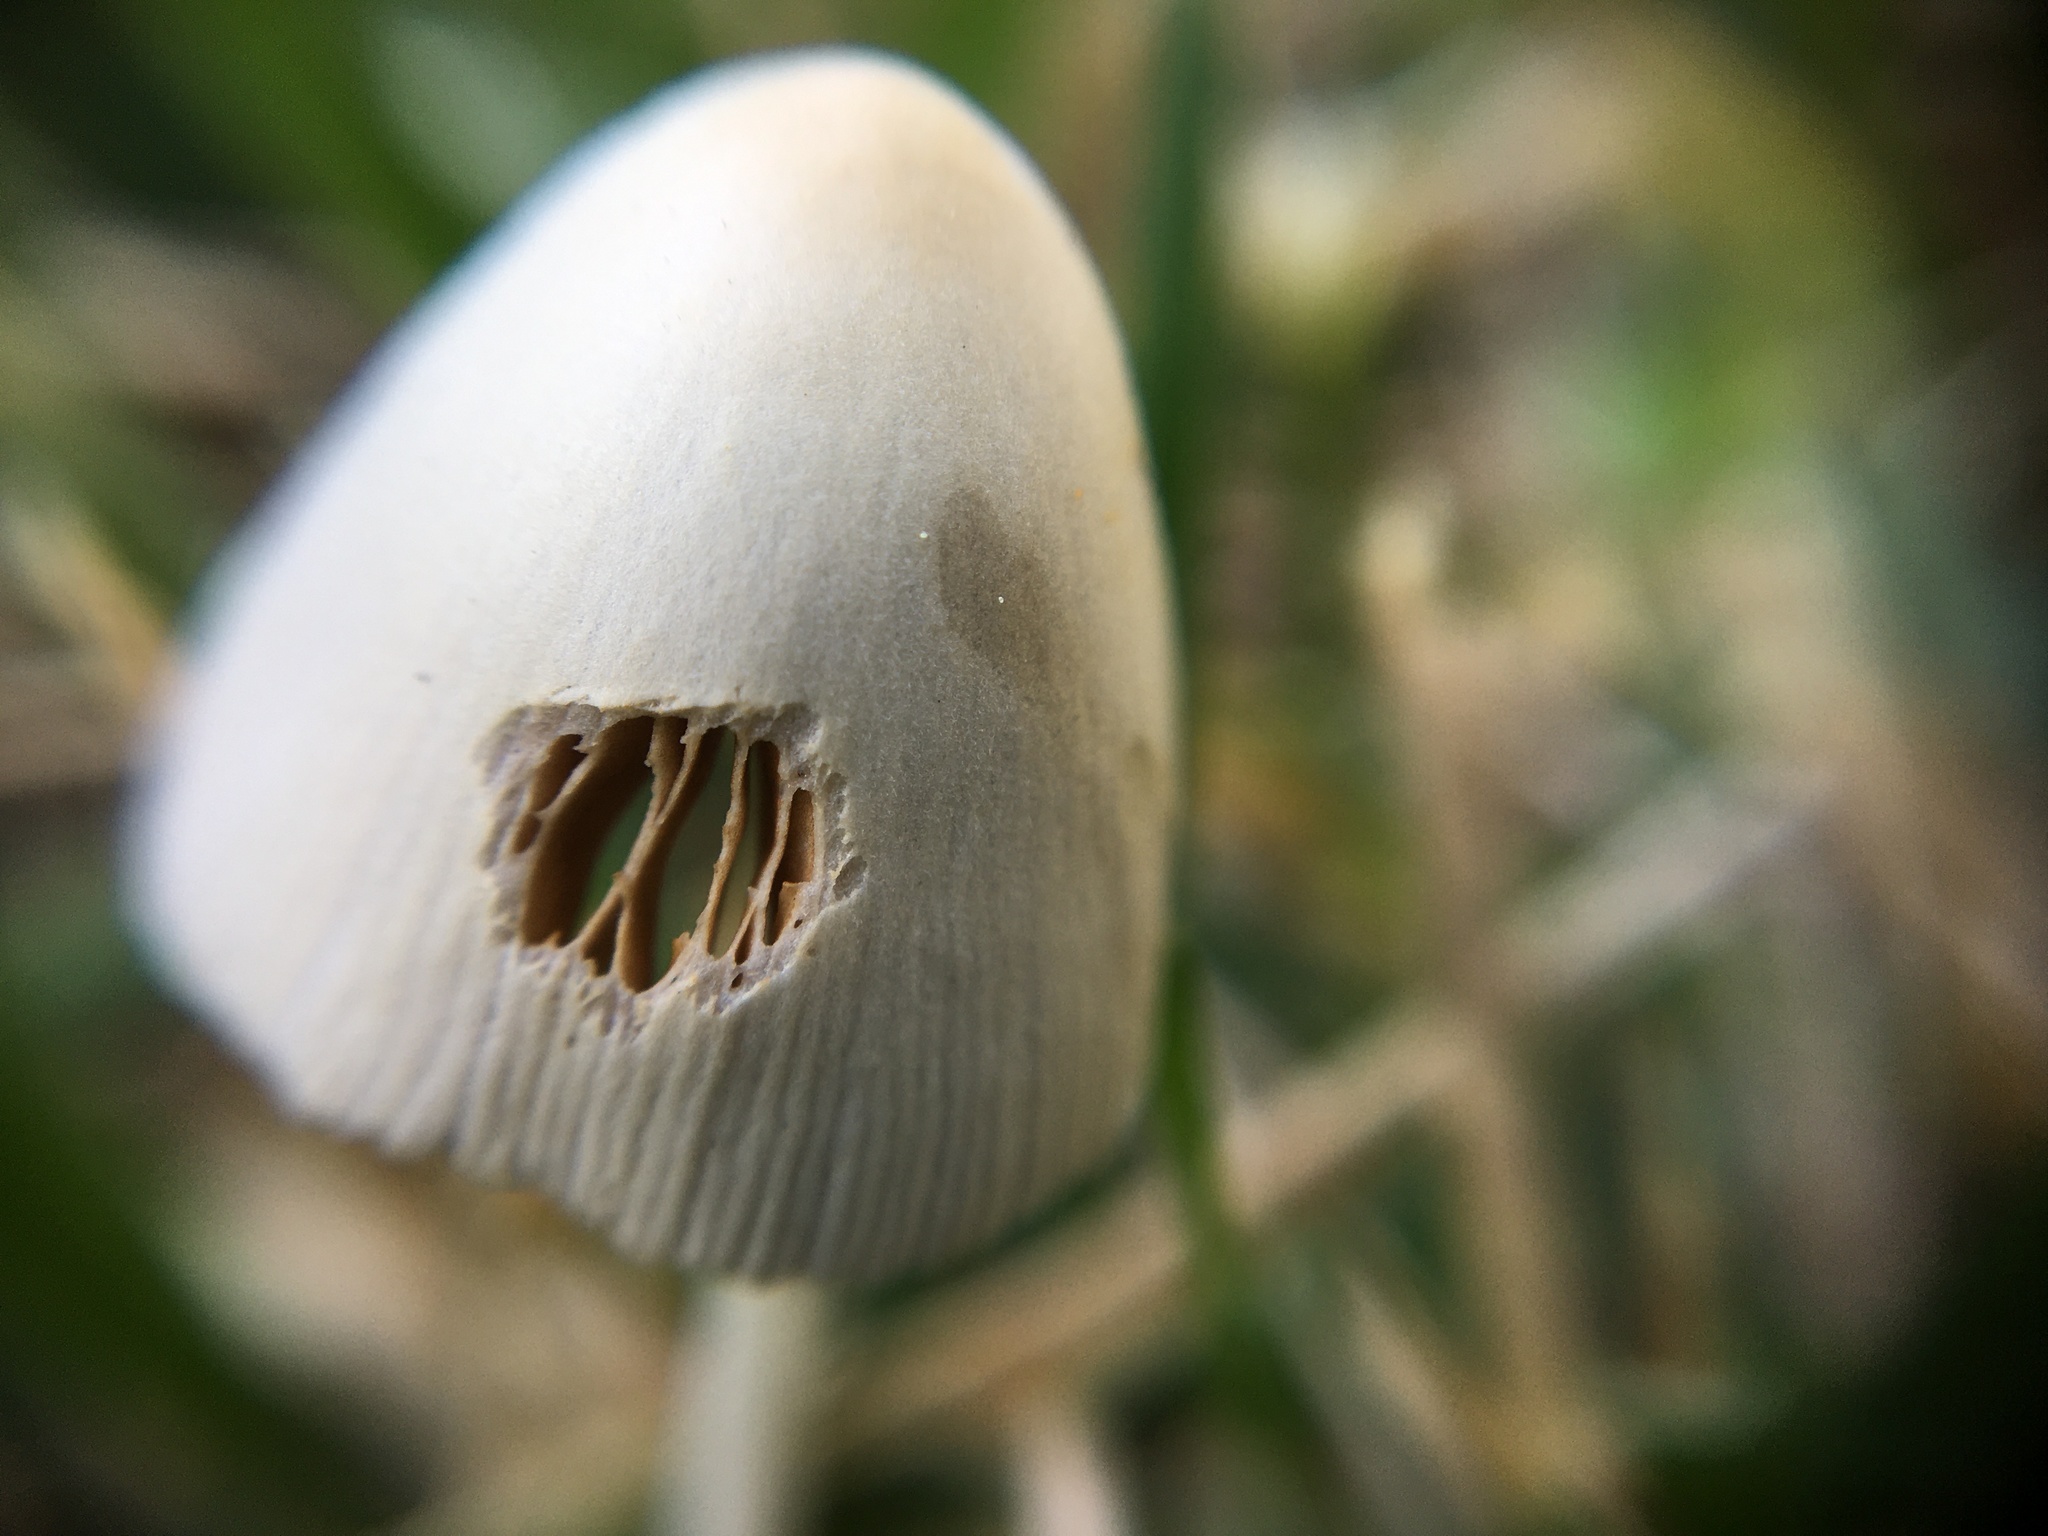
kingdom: Fungi
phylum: Basidiomycota
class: Agaricomycetes
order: Agaricales
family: Bolbitiaceae
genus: Conocybe
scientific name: Conocybe apala
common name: Milky conecap
